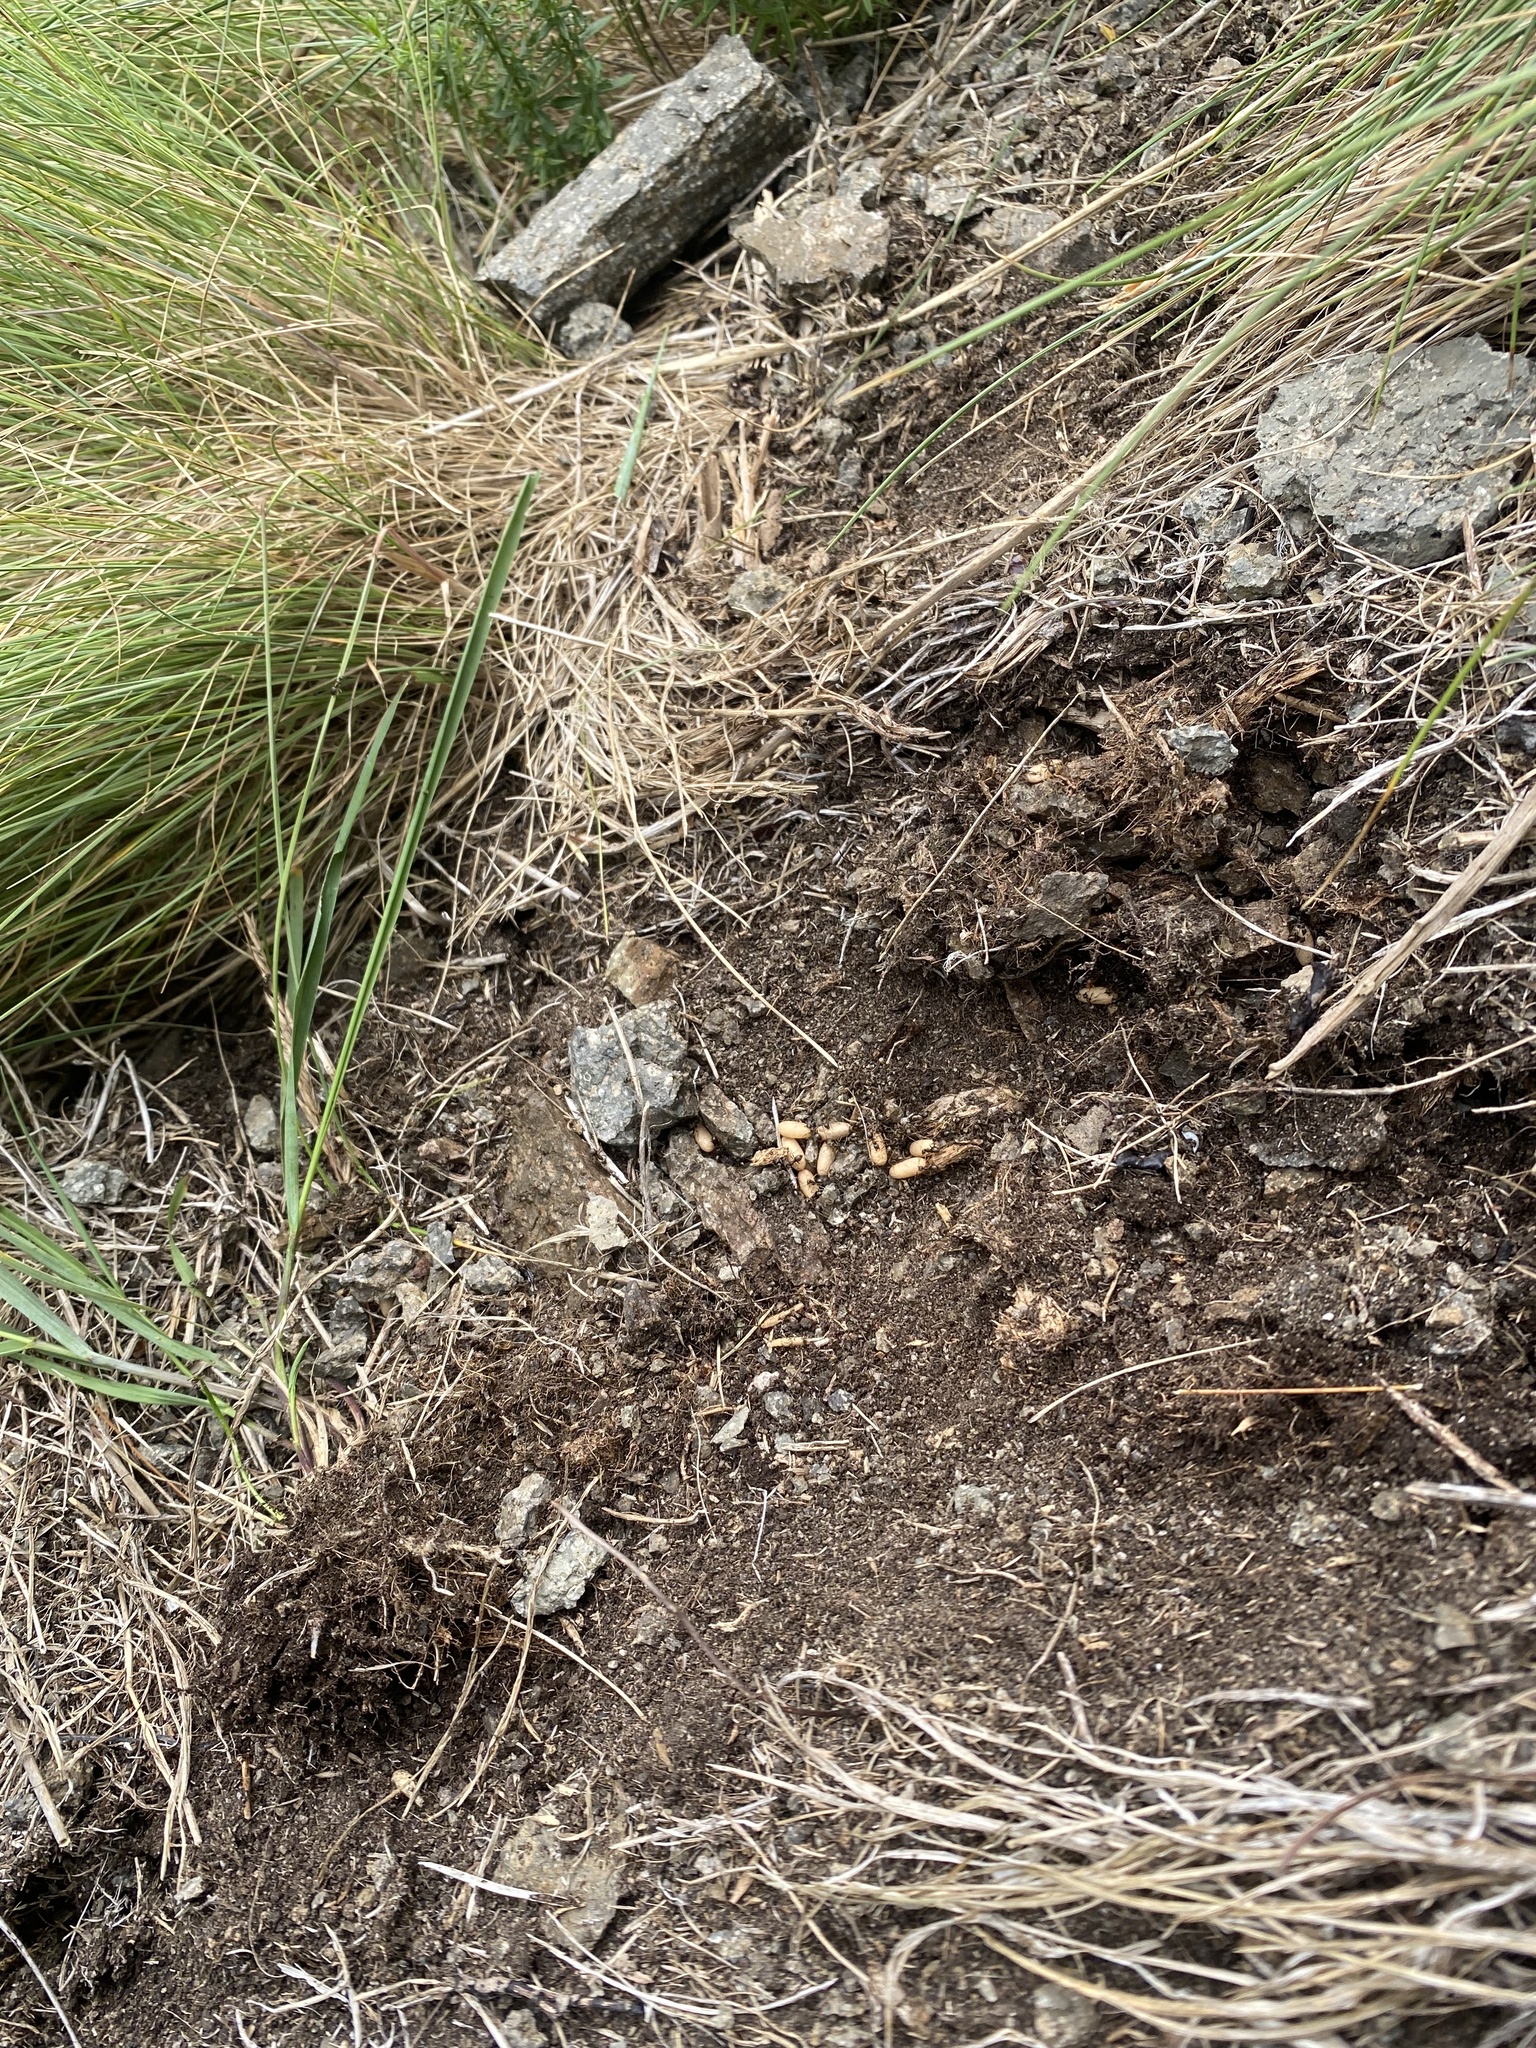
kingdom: Animalia
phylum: Arthropoda
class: Insecta
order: Hymenoptera
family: Formicidae
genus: Lasius
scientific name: Lasius
